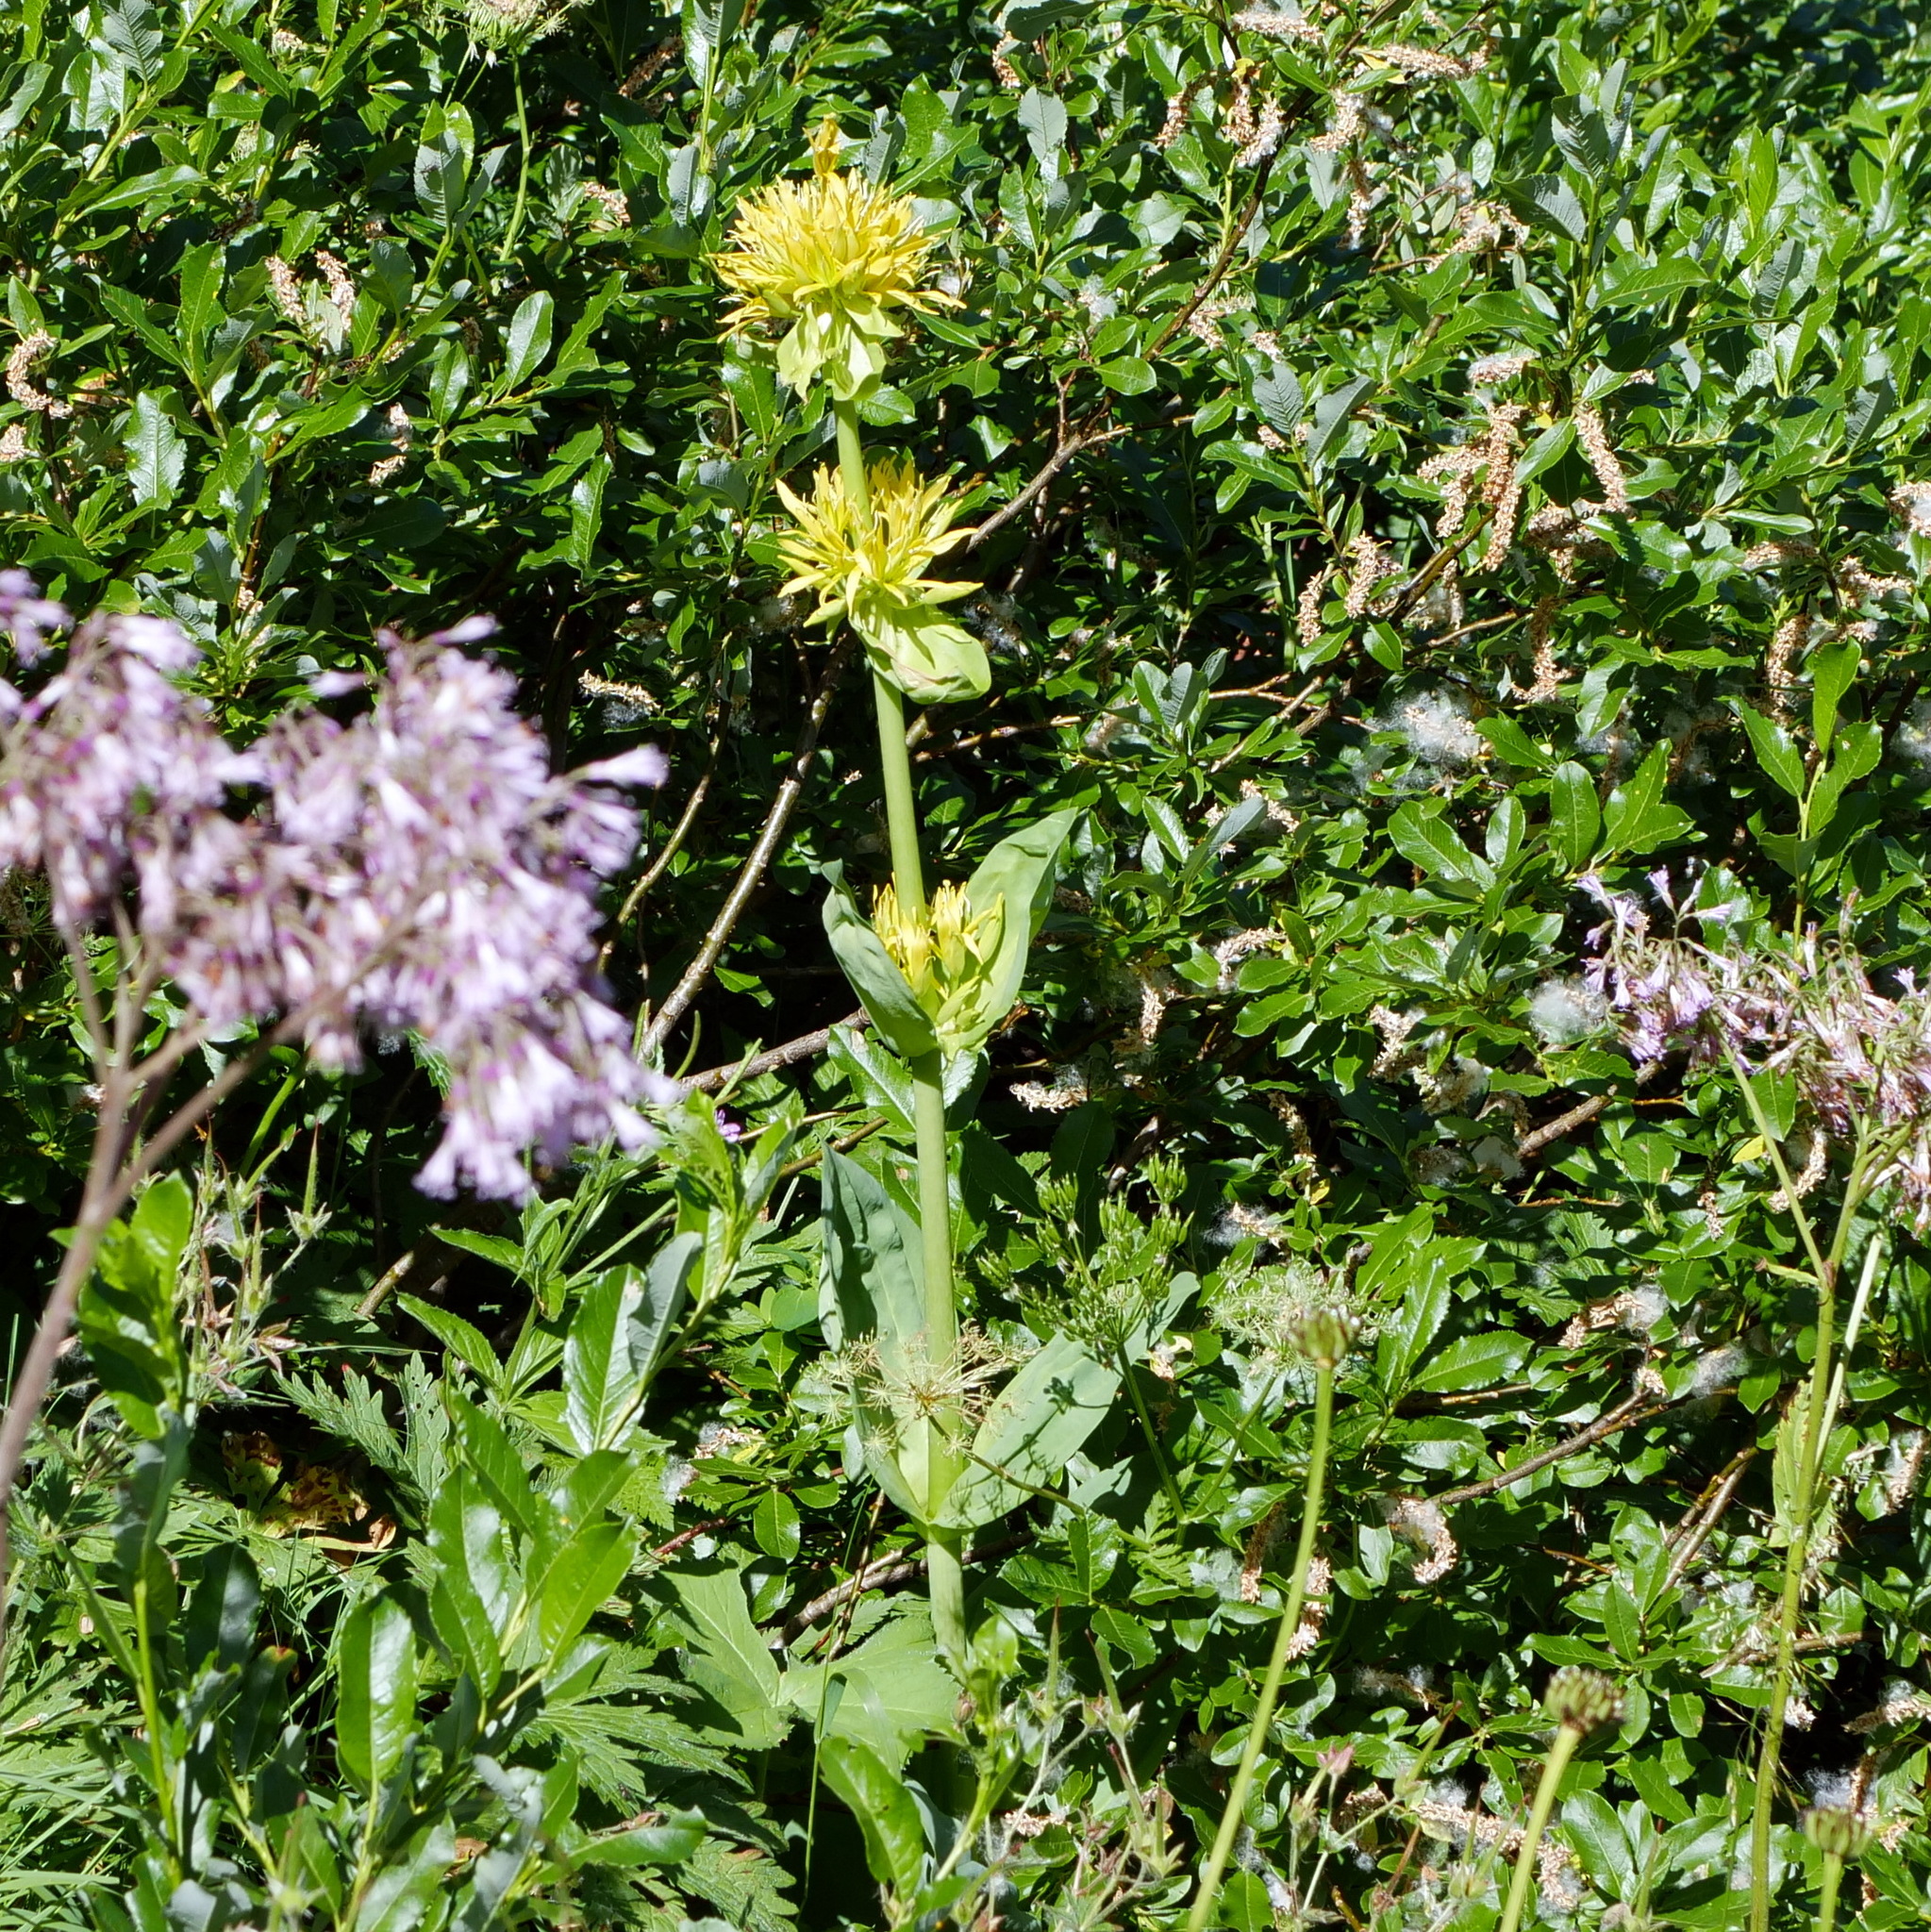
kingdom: Plantae
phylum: Tracheophyta
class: Magnoliopsida
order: Gentianales
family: Gentianaceae
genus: Gentiana
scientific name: Gentiana lutea
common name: Great yellow gentian
